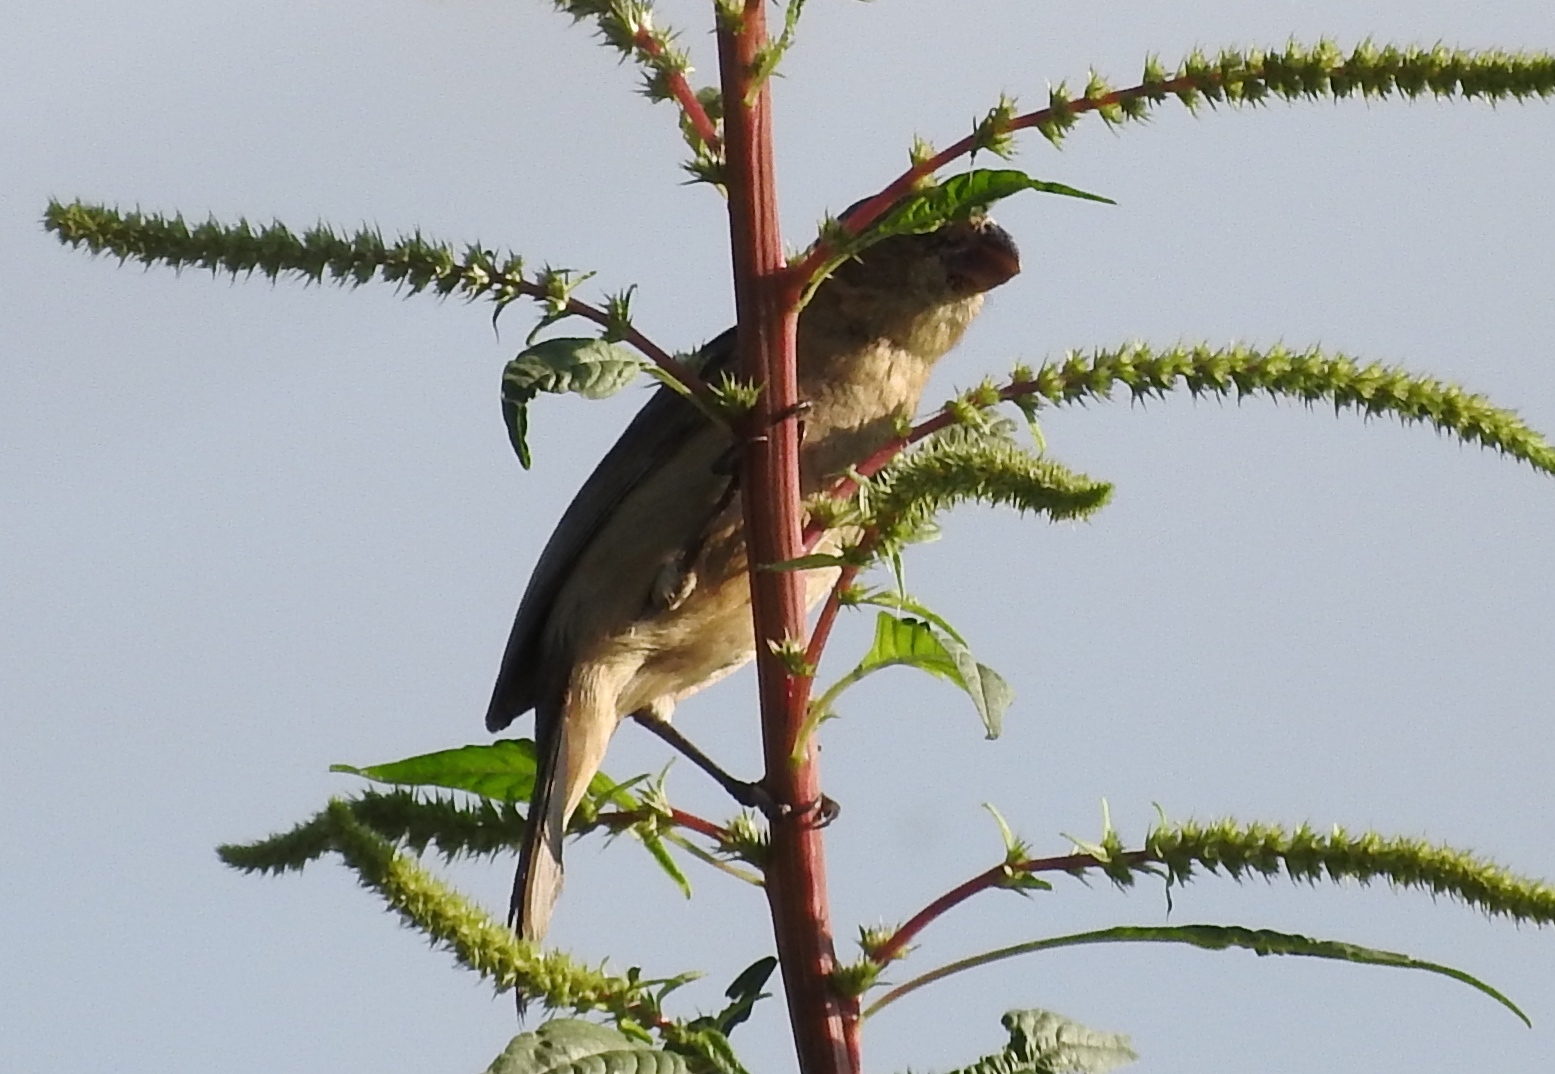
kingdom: Animalia
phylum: Chordata
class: Aves
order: Passeriformes
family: Thraupidae
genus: Sporophila
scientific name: Sporophila torqueola
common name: White-collared seedeater
